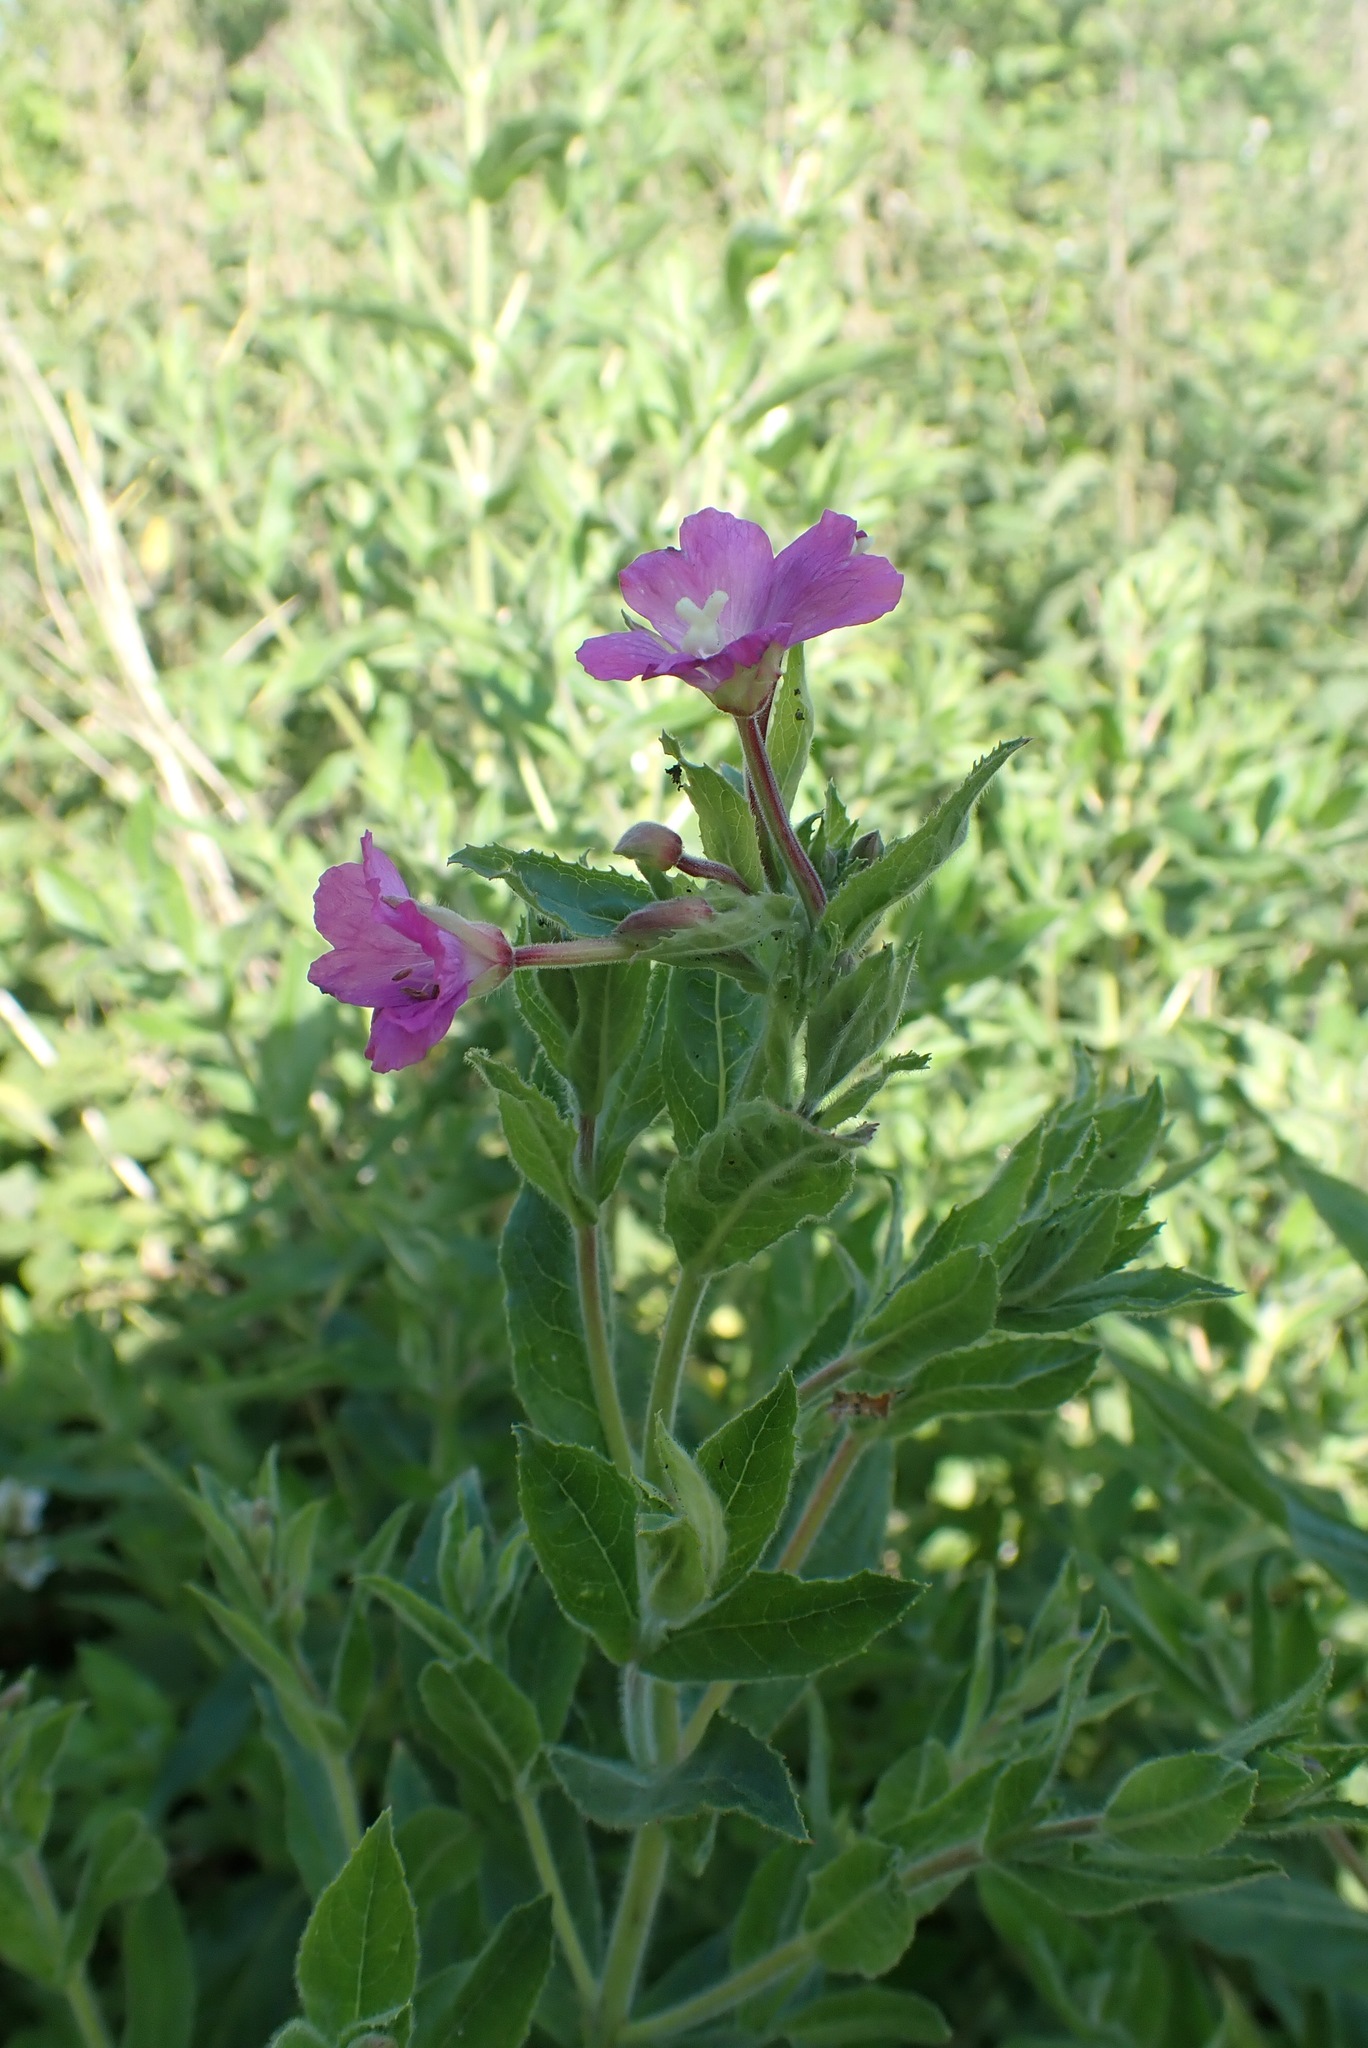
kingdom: Plantae
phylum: Tracheophyta
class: Magnoliopsida
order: Myrtales
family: Onagraceae
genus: Epilobium
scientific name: Epilobium hirsutum
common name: Great willowherb
